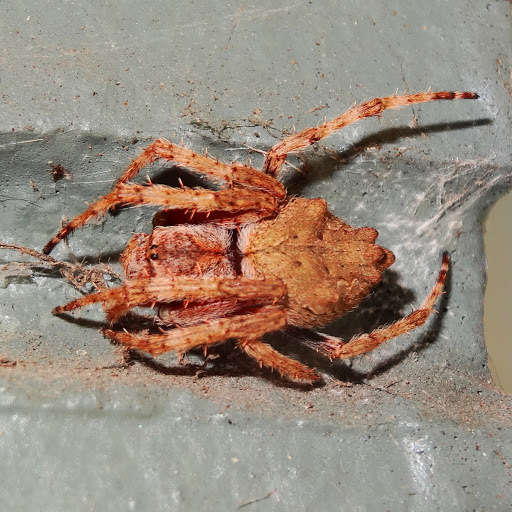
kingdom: Animalia
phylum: Arthropoda
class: Arachnida
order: Araneae
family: Araneidae
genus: Eriophora
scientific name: Eriophora pustulosa
